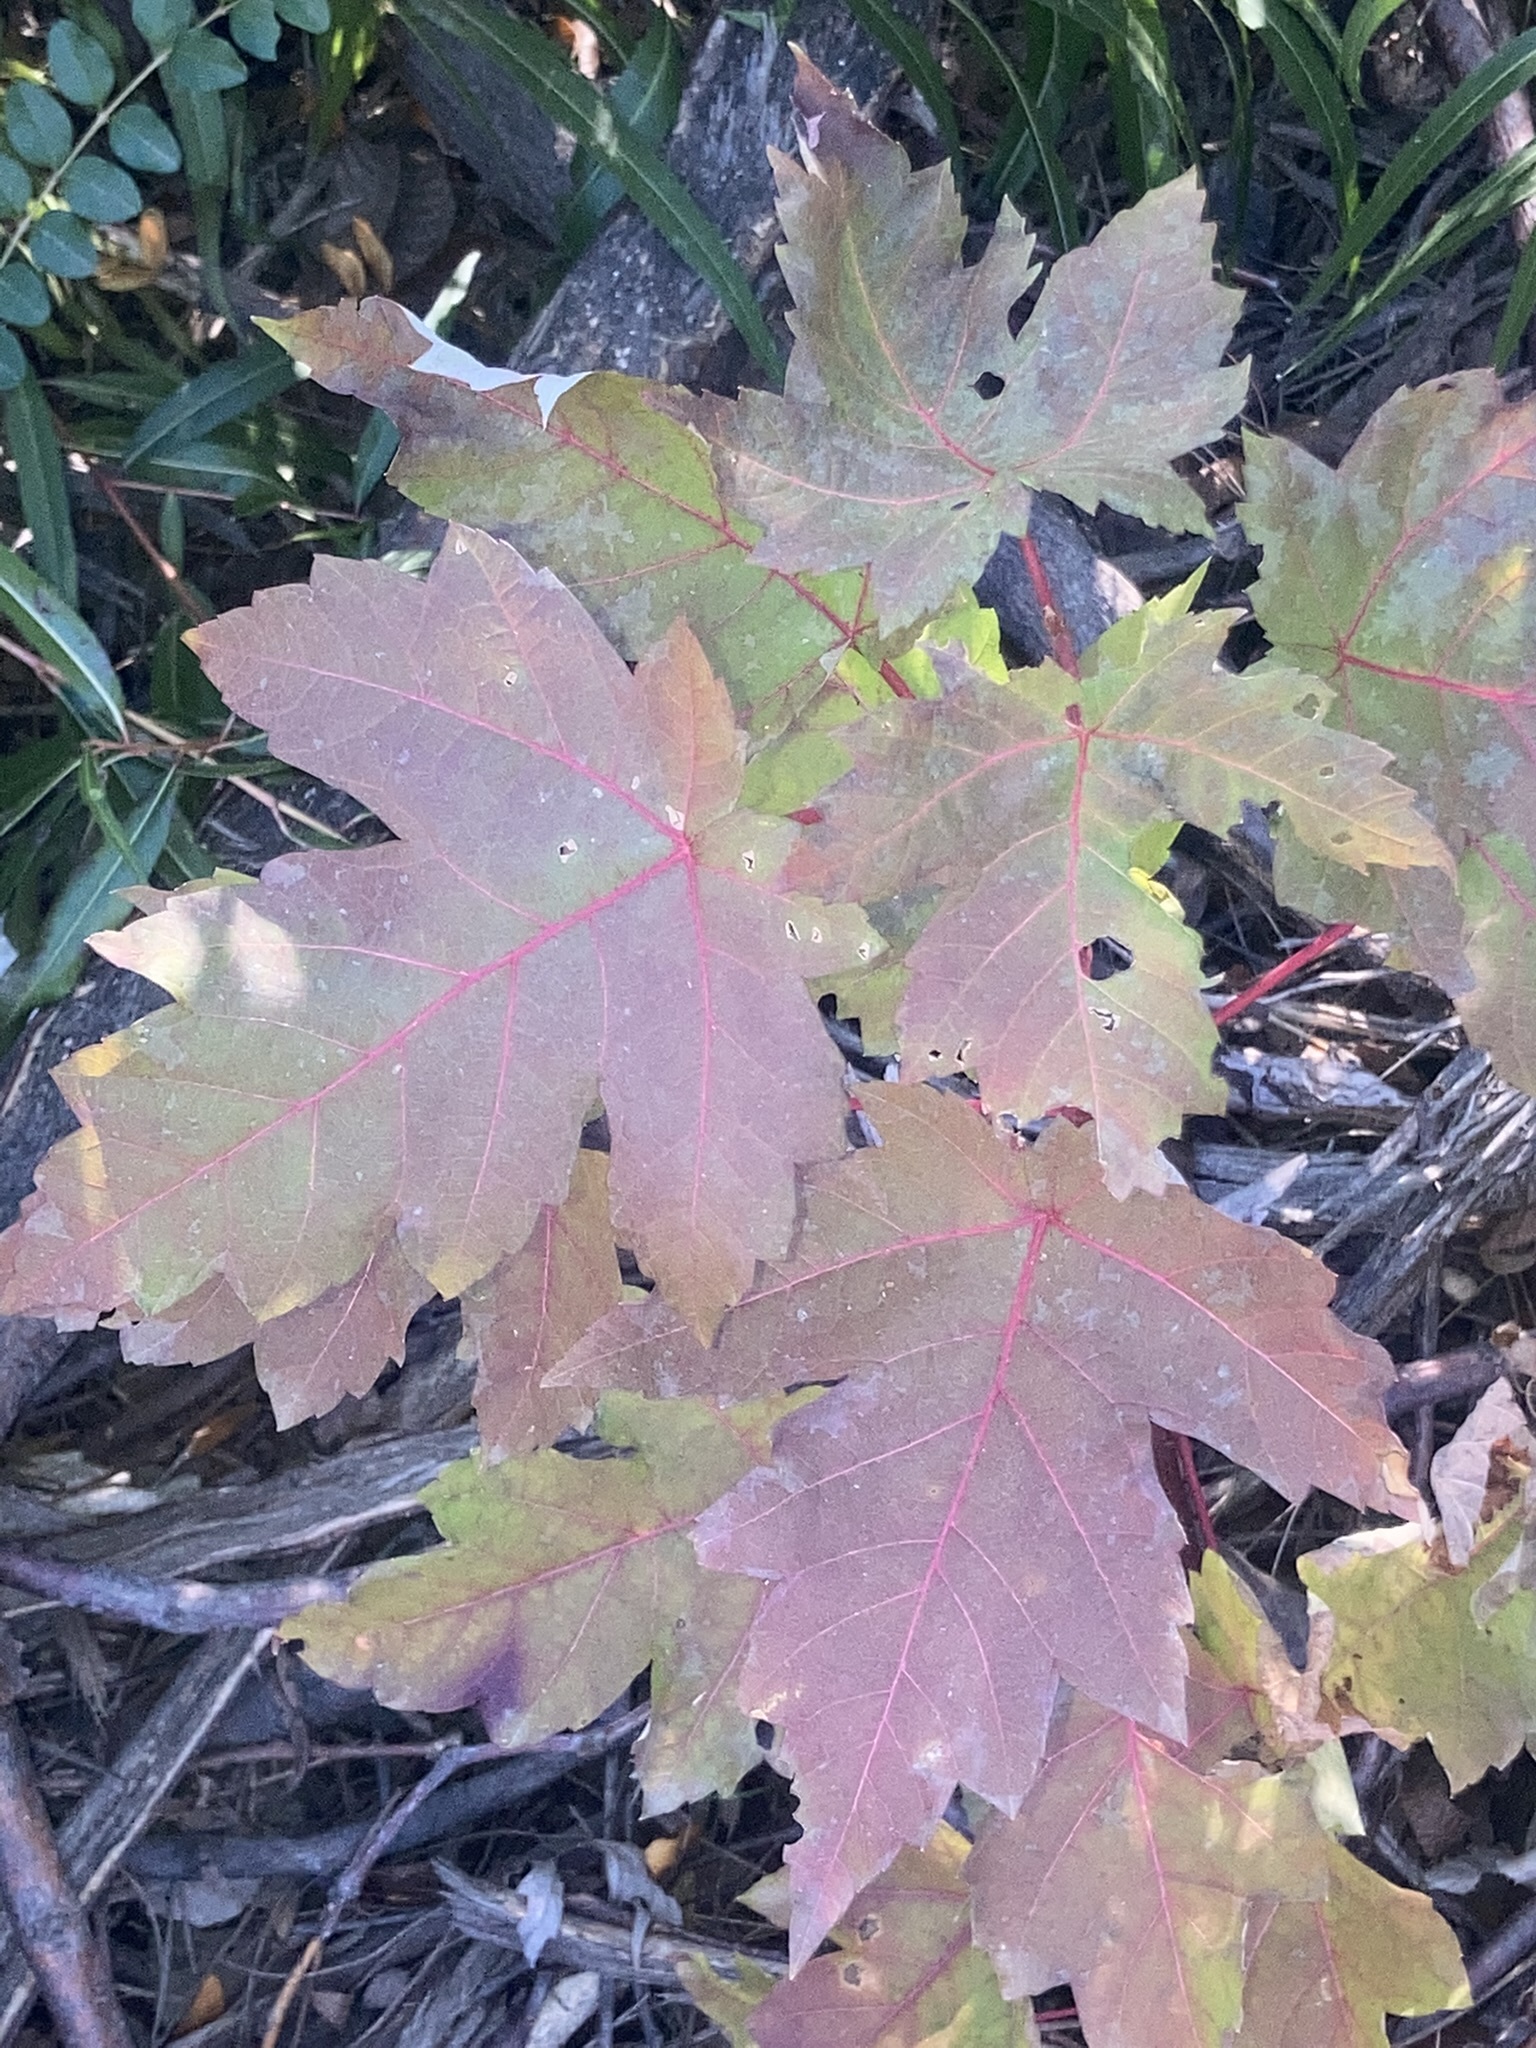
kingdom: Plantae
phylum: Tracheophyta
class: Magnoliopsida
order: Sapindales
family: Sapindaceae
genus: Acer
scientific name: Acer rubrum
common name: Red maple
